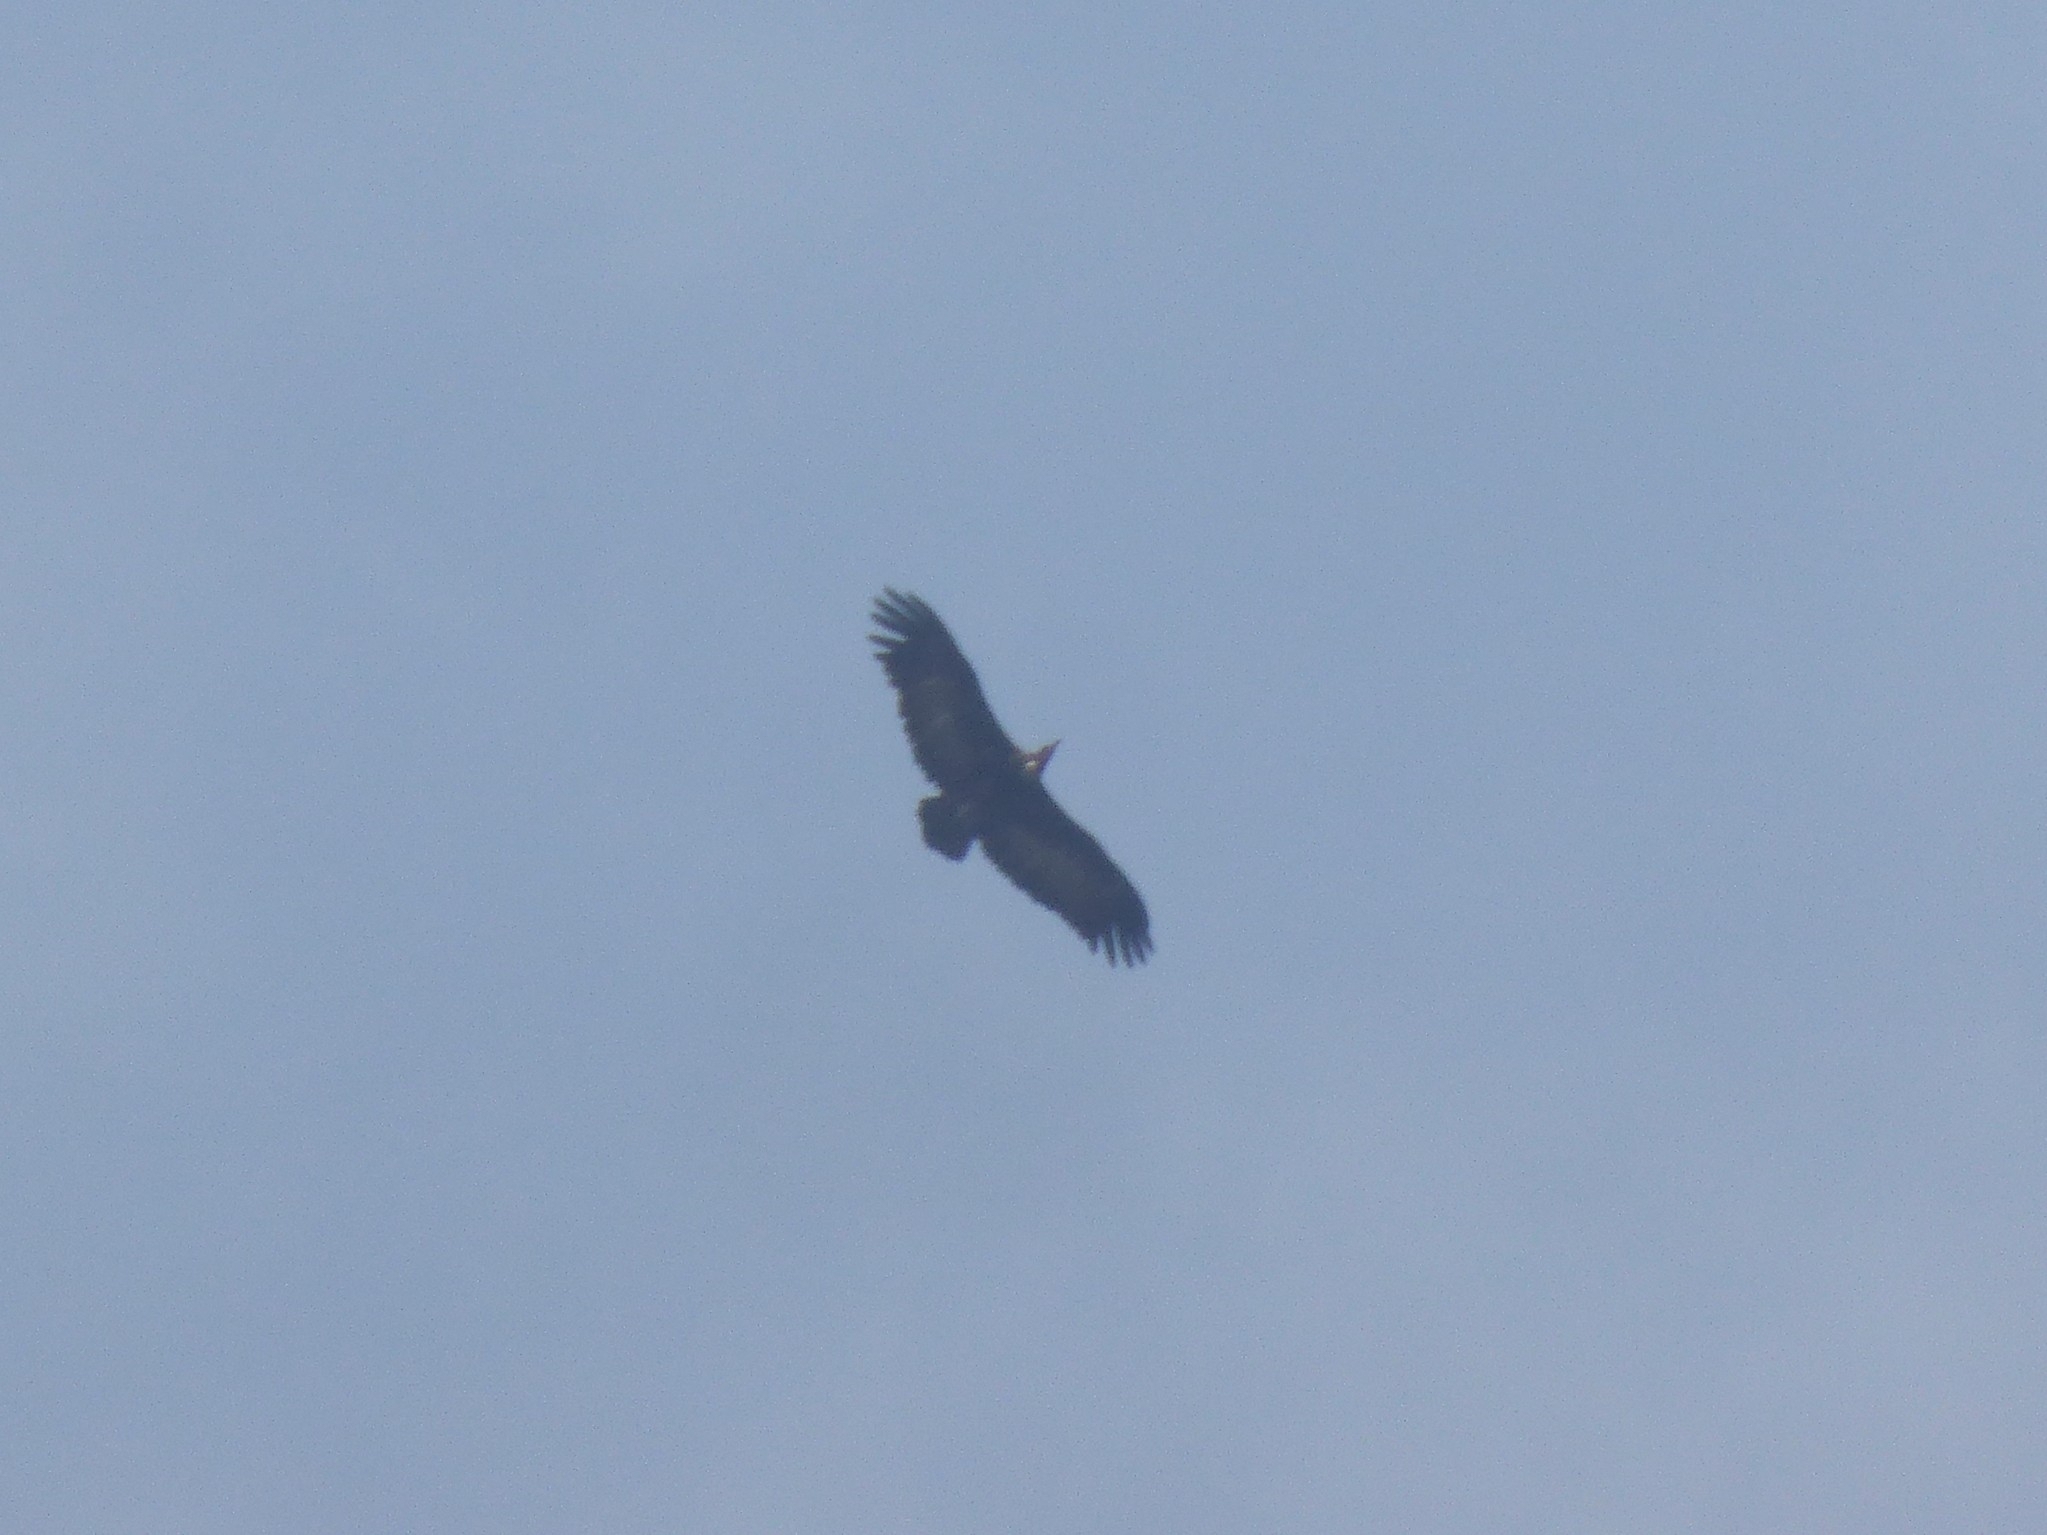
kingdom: Animalia
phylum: Chordata
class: Aves
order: Accipitriformes
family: Accipitridae
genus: Necrosyrtes
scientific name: Necrosyrtes monachus
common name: Hooded vulture
